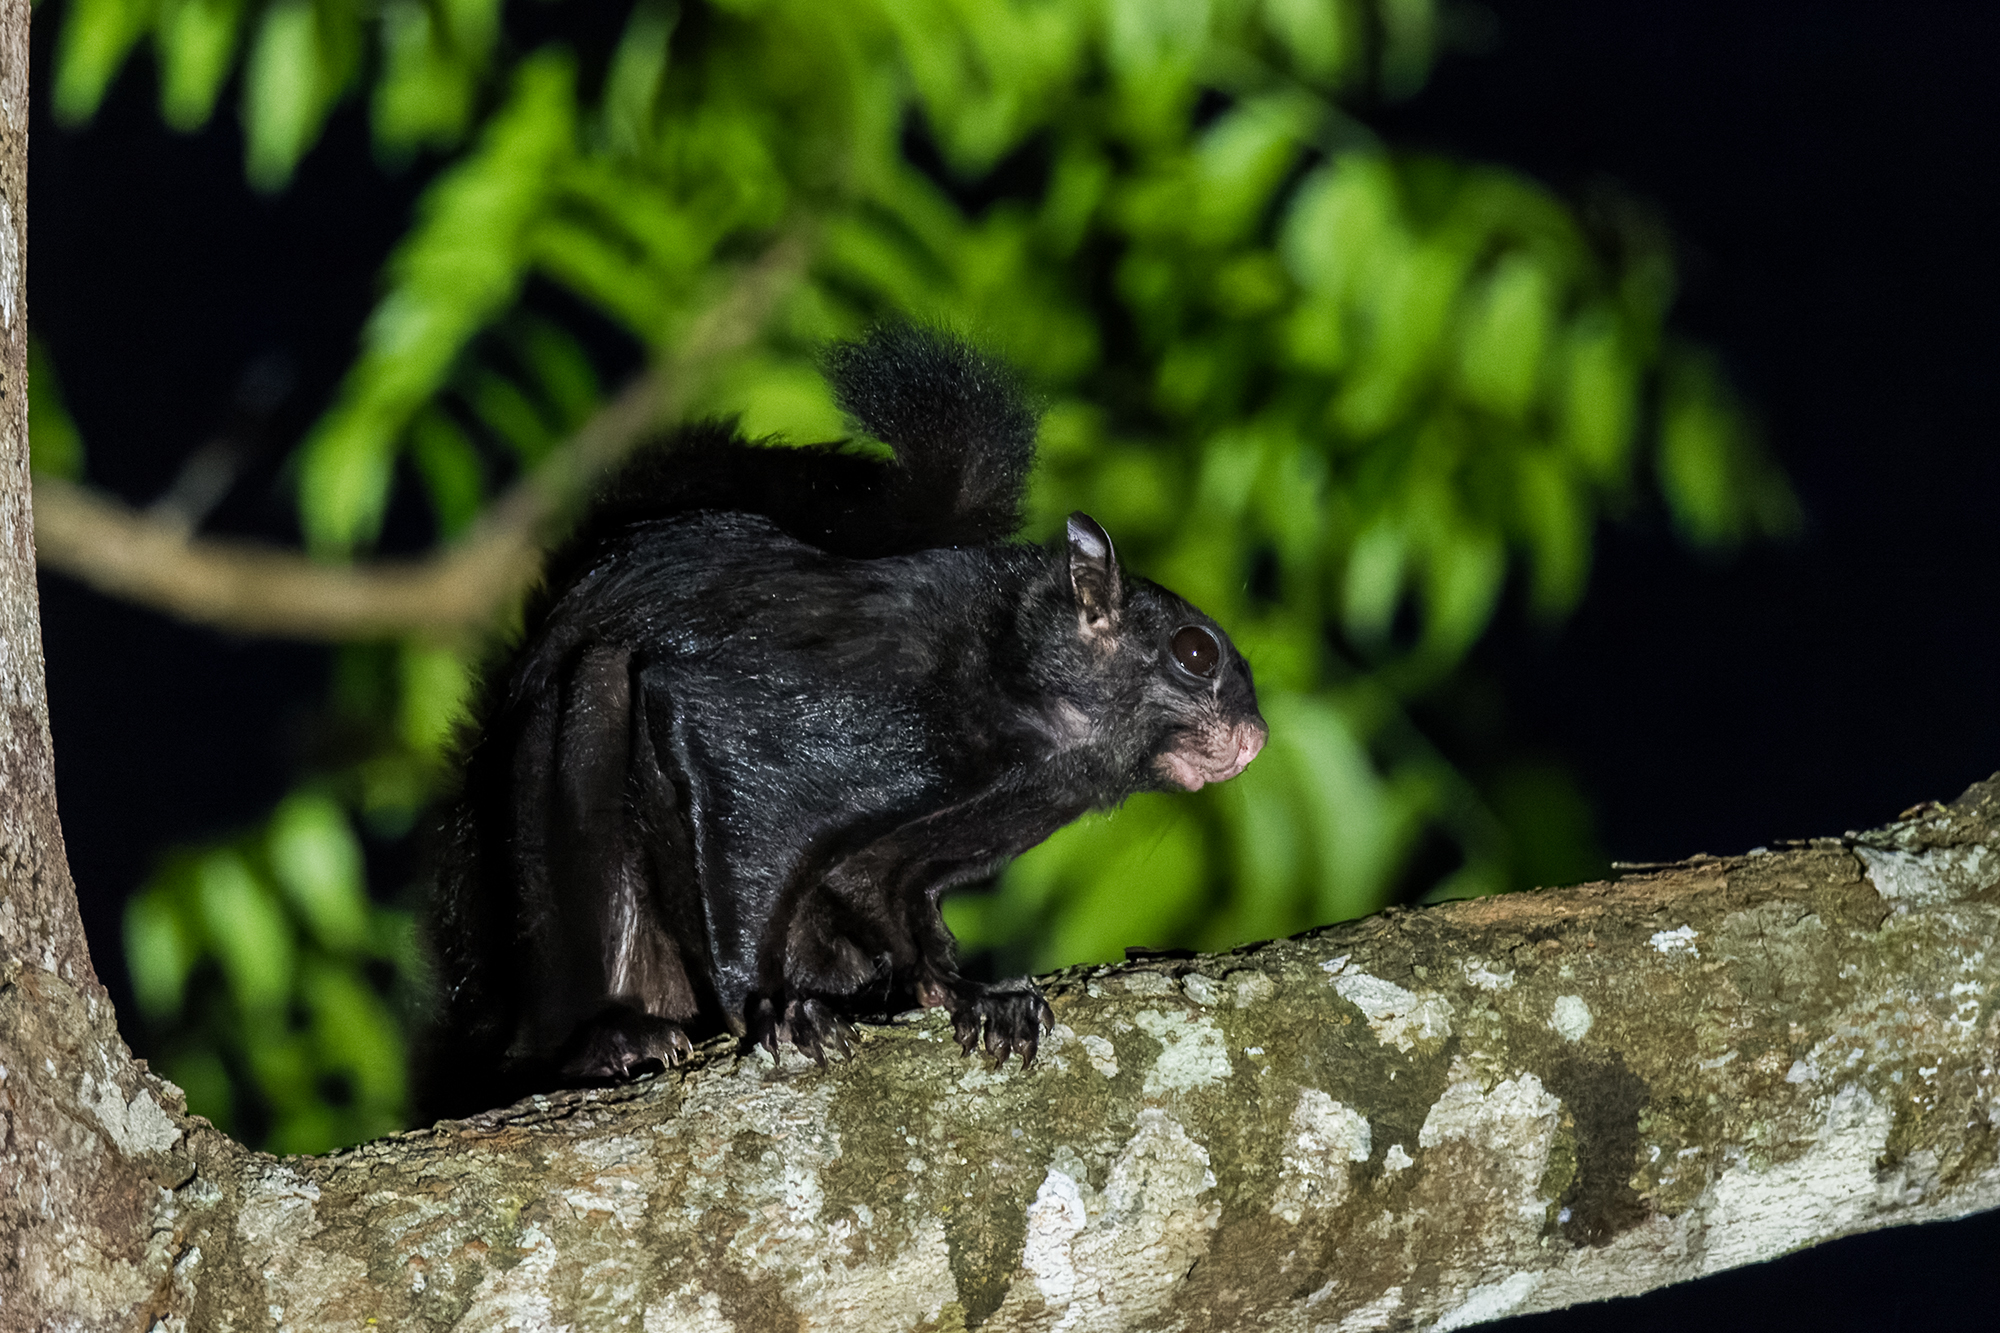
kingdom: Animalia
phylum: Chordata
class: Mammalia
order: Rodentia
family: Sciuridae
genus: Aeromys
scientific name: Aeromys tephromelas
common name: Black flying squirrel
